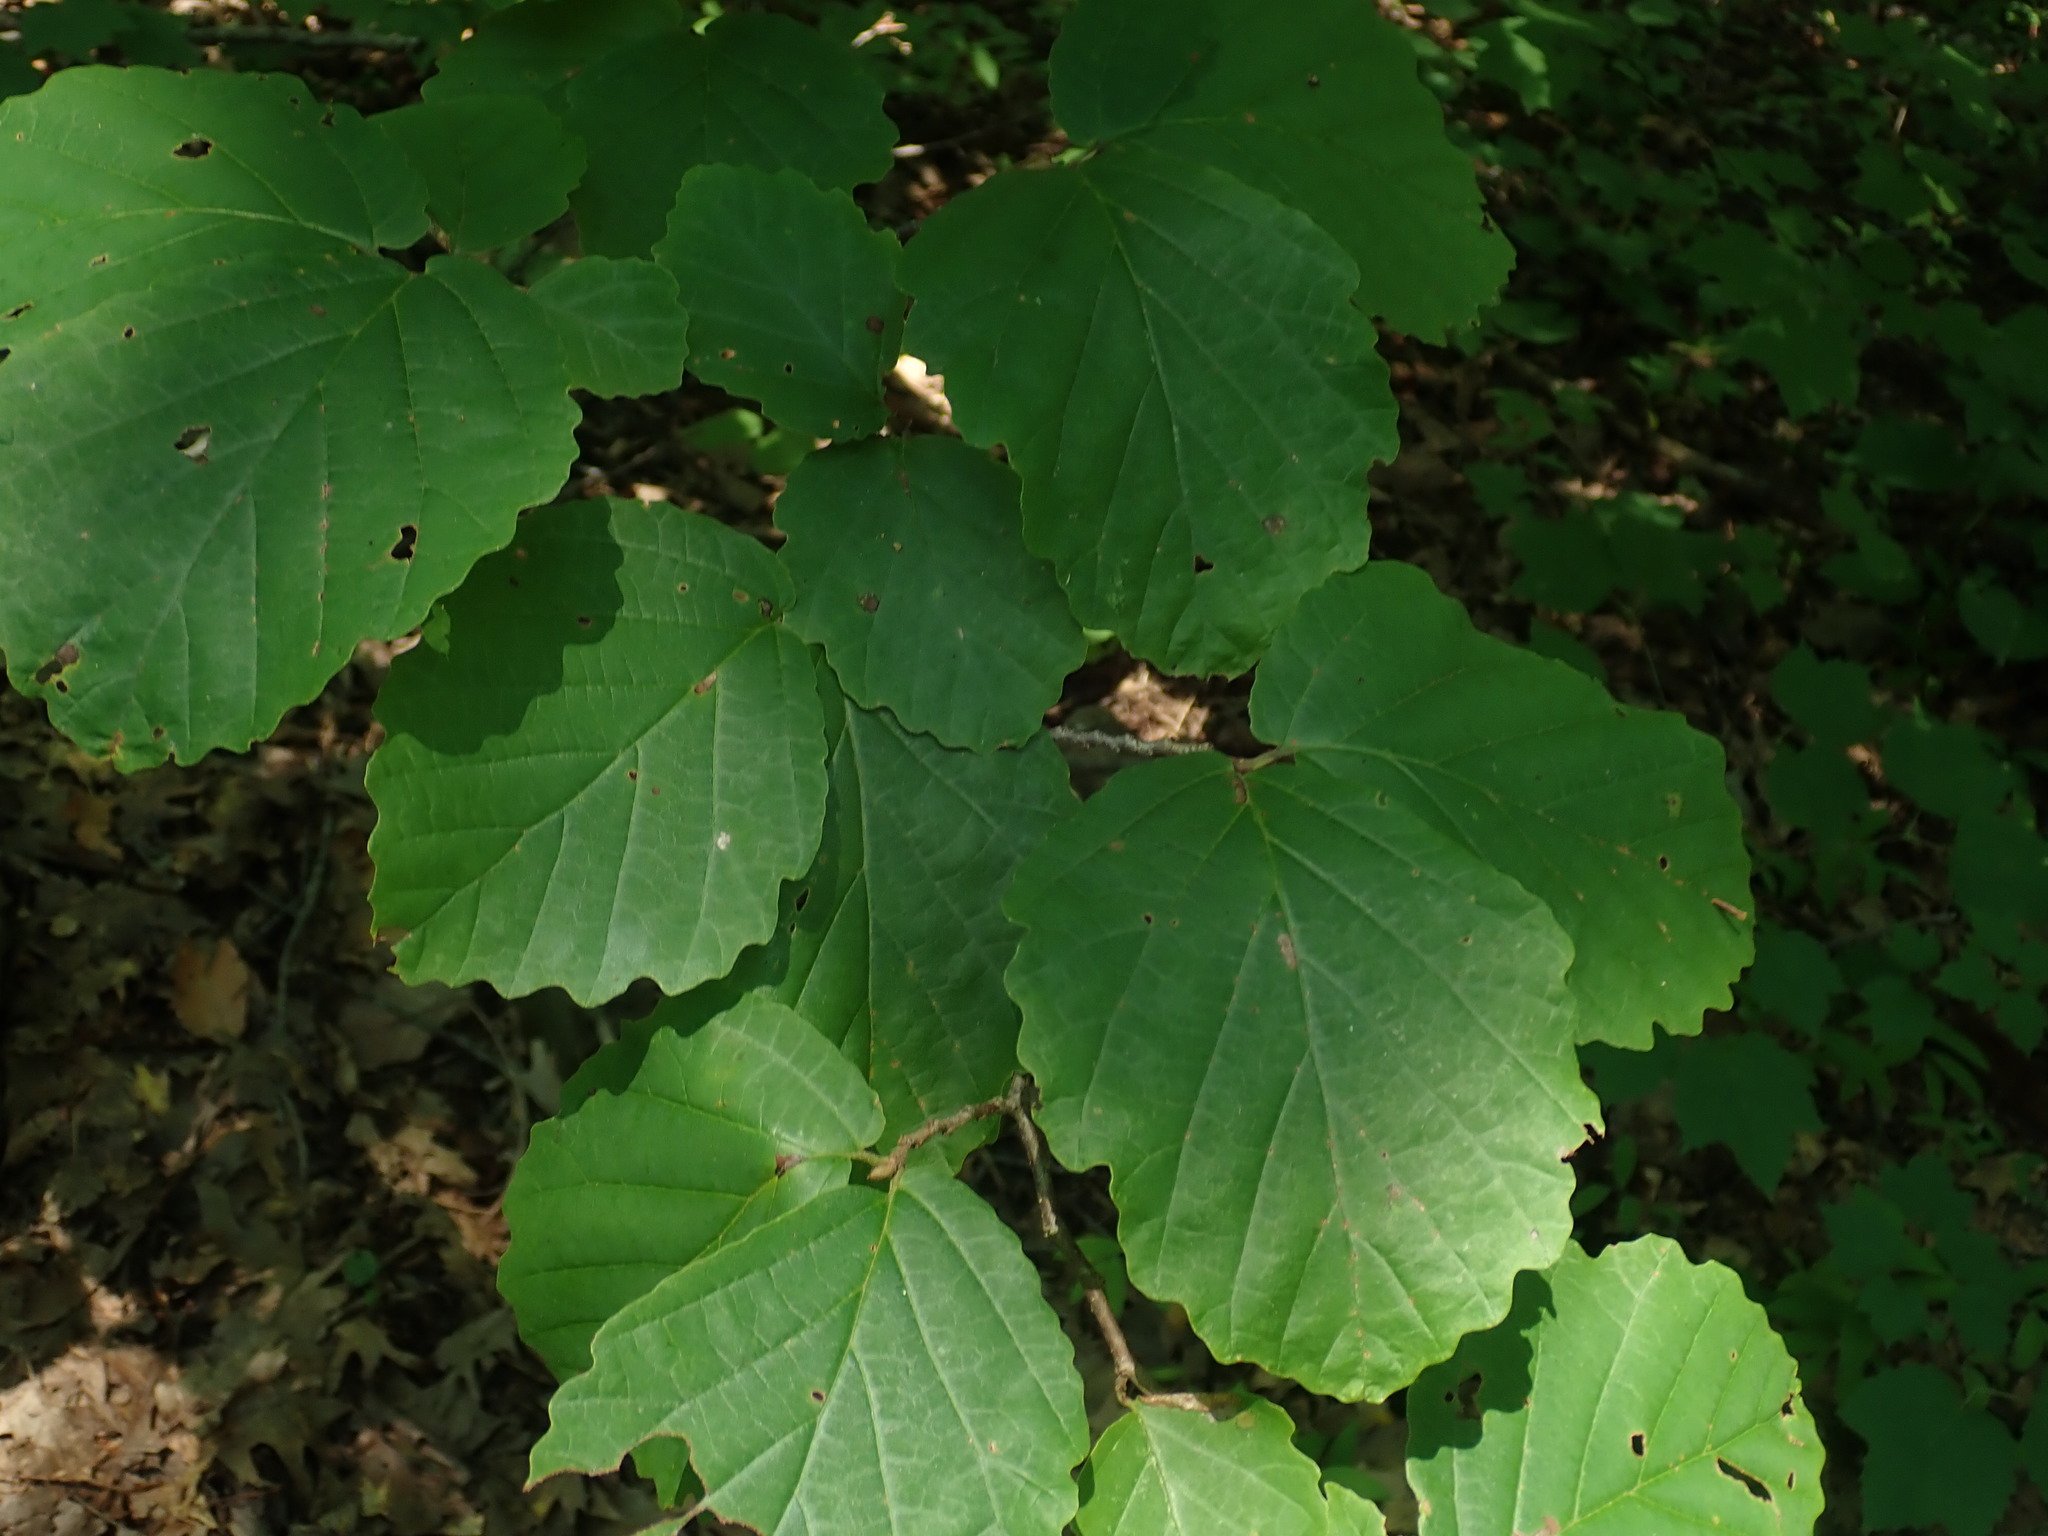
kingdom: Plantae
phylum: Tracheophyta
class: Magnoliopsida
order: Saxifragales
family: Hamamelidaceae
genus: Hamamelis
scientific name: Hamamelis virginiana
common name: Witch-hazel
